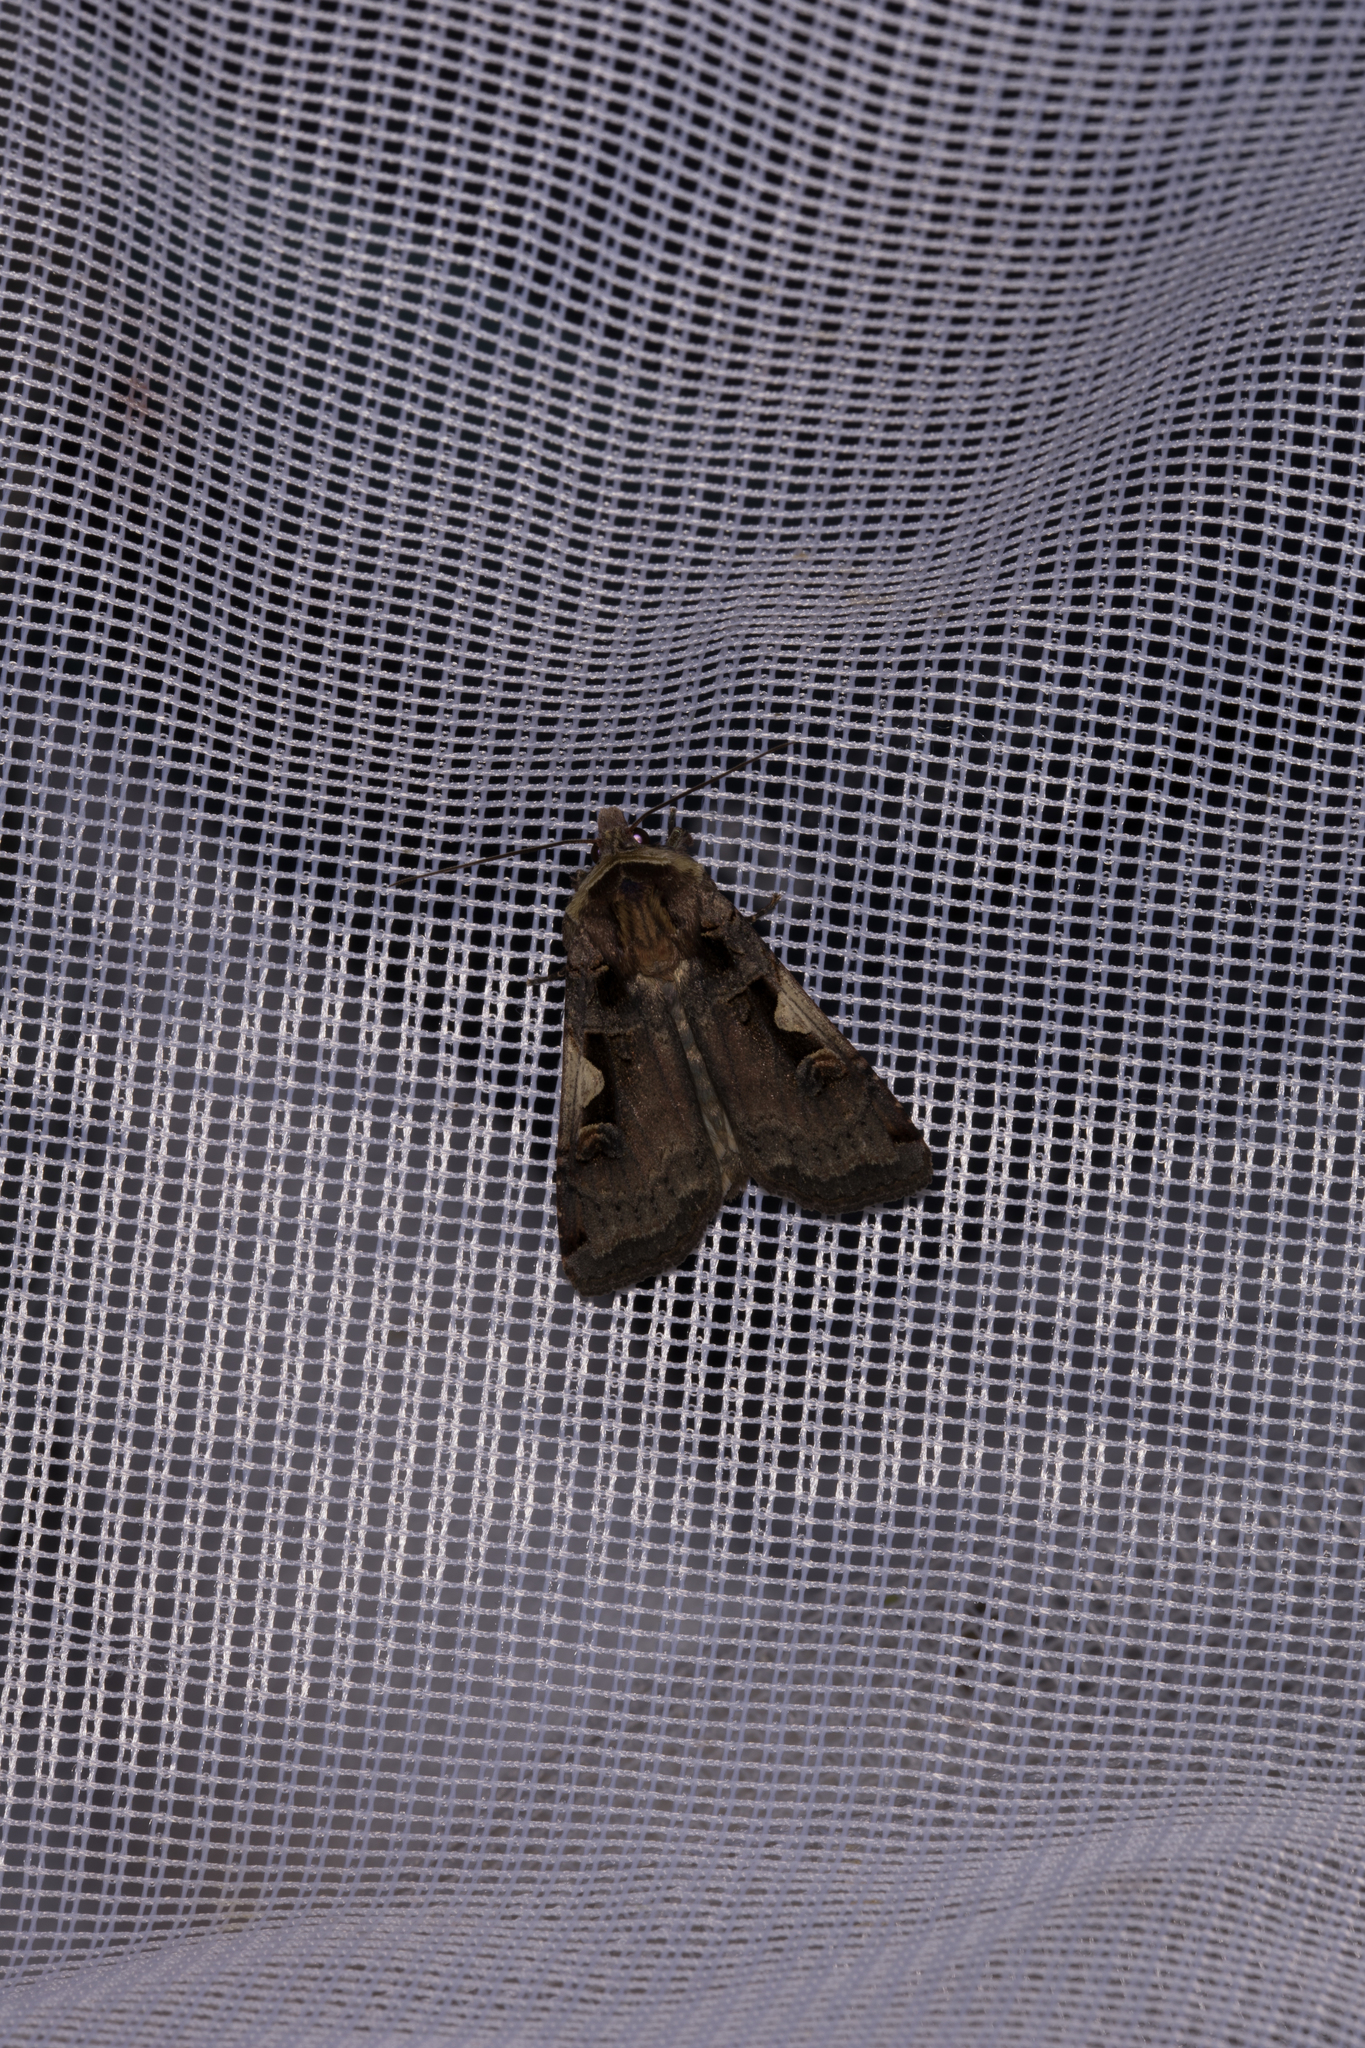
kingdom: Animalia
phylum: Arthropoda
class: Insecta
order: Lepidoptera
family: Noctuidae
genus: Xestia
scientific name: Xestia c-nigrum
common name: Setaceous hebrew character
